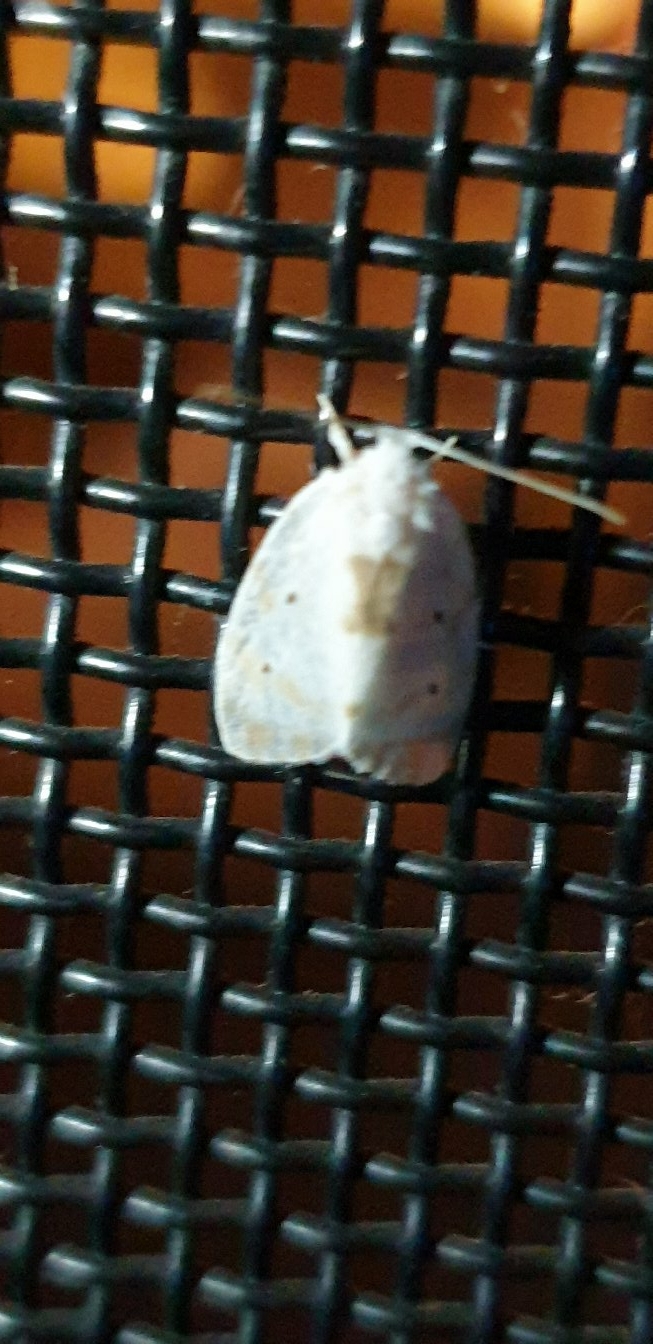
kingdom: Animalia
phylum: Arthropoda
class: Insecta
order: Lepidoptera
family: Erebidae
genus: Schistophleps
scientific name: Schistophleps albida
